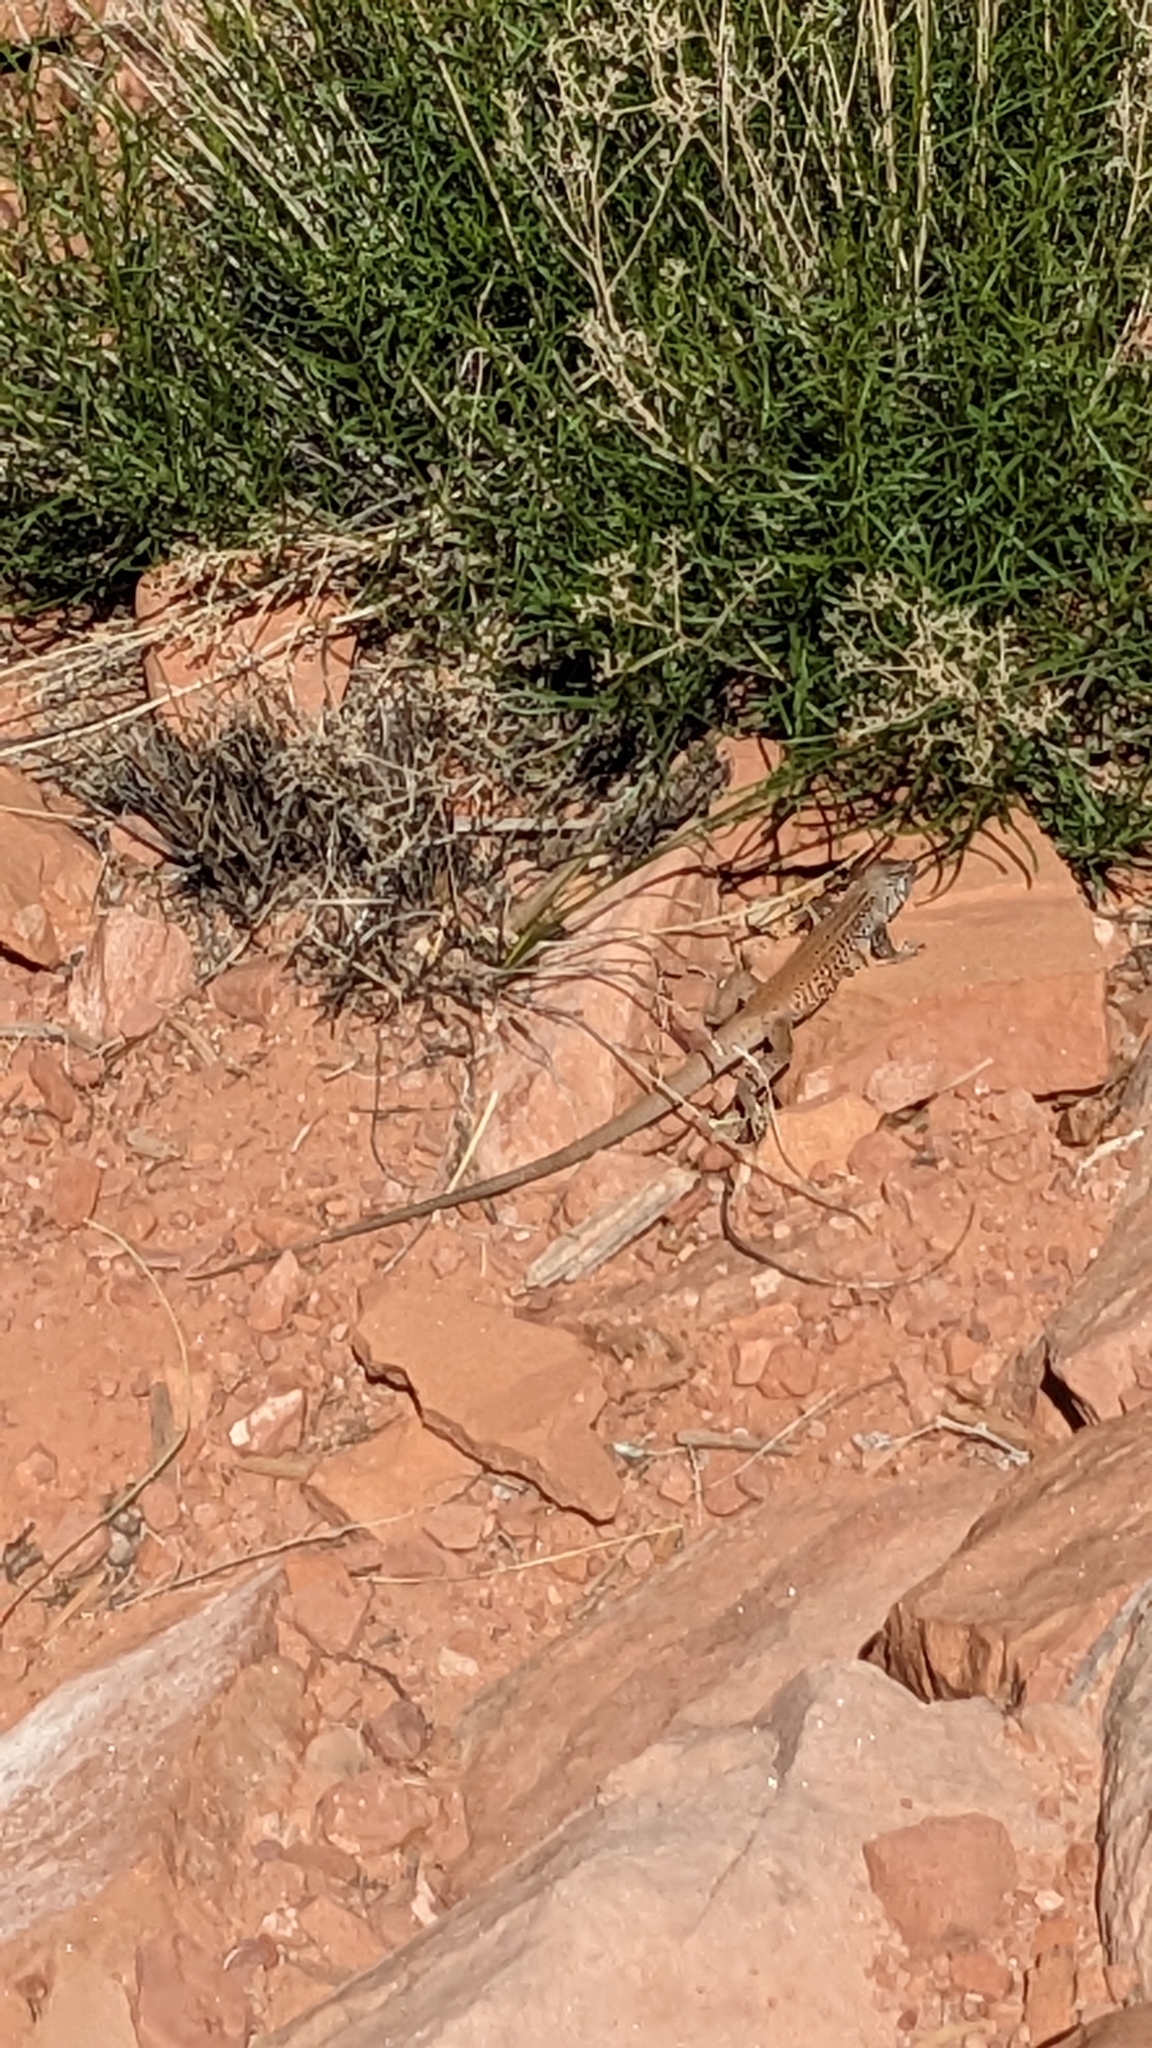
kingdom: Animalia
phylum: Chordata
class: Squamata
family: Teiidae
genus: Aspidoscelis
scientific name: Aspidoscelis tigris
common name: Tiger whiptail
